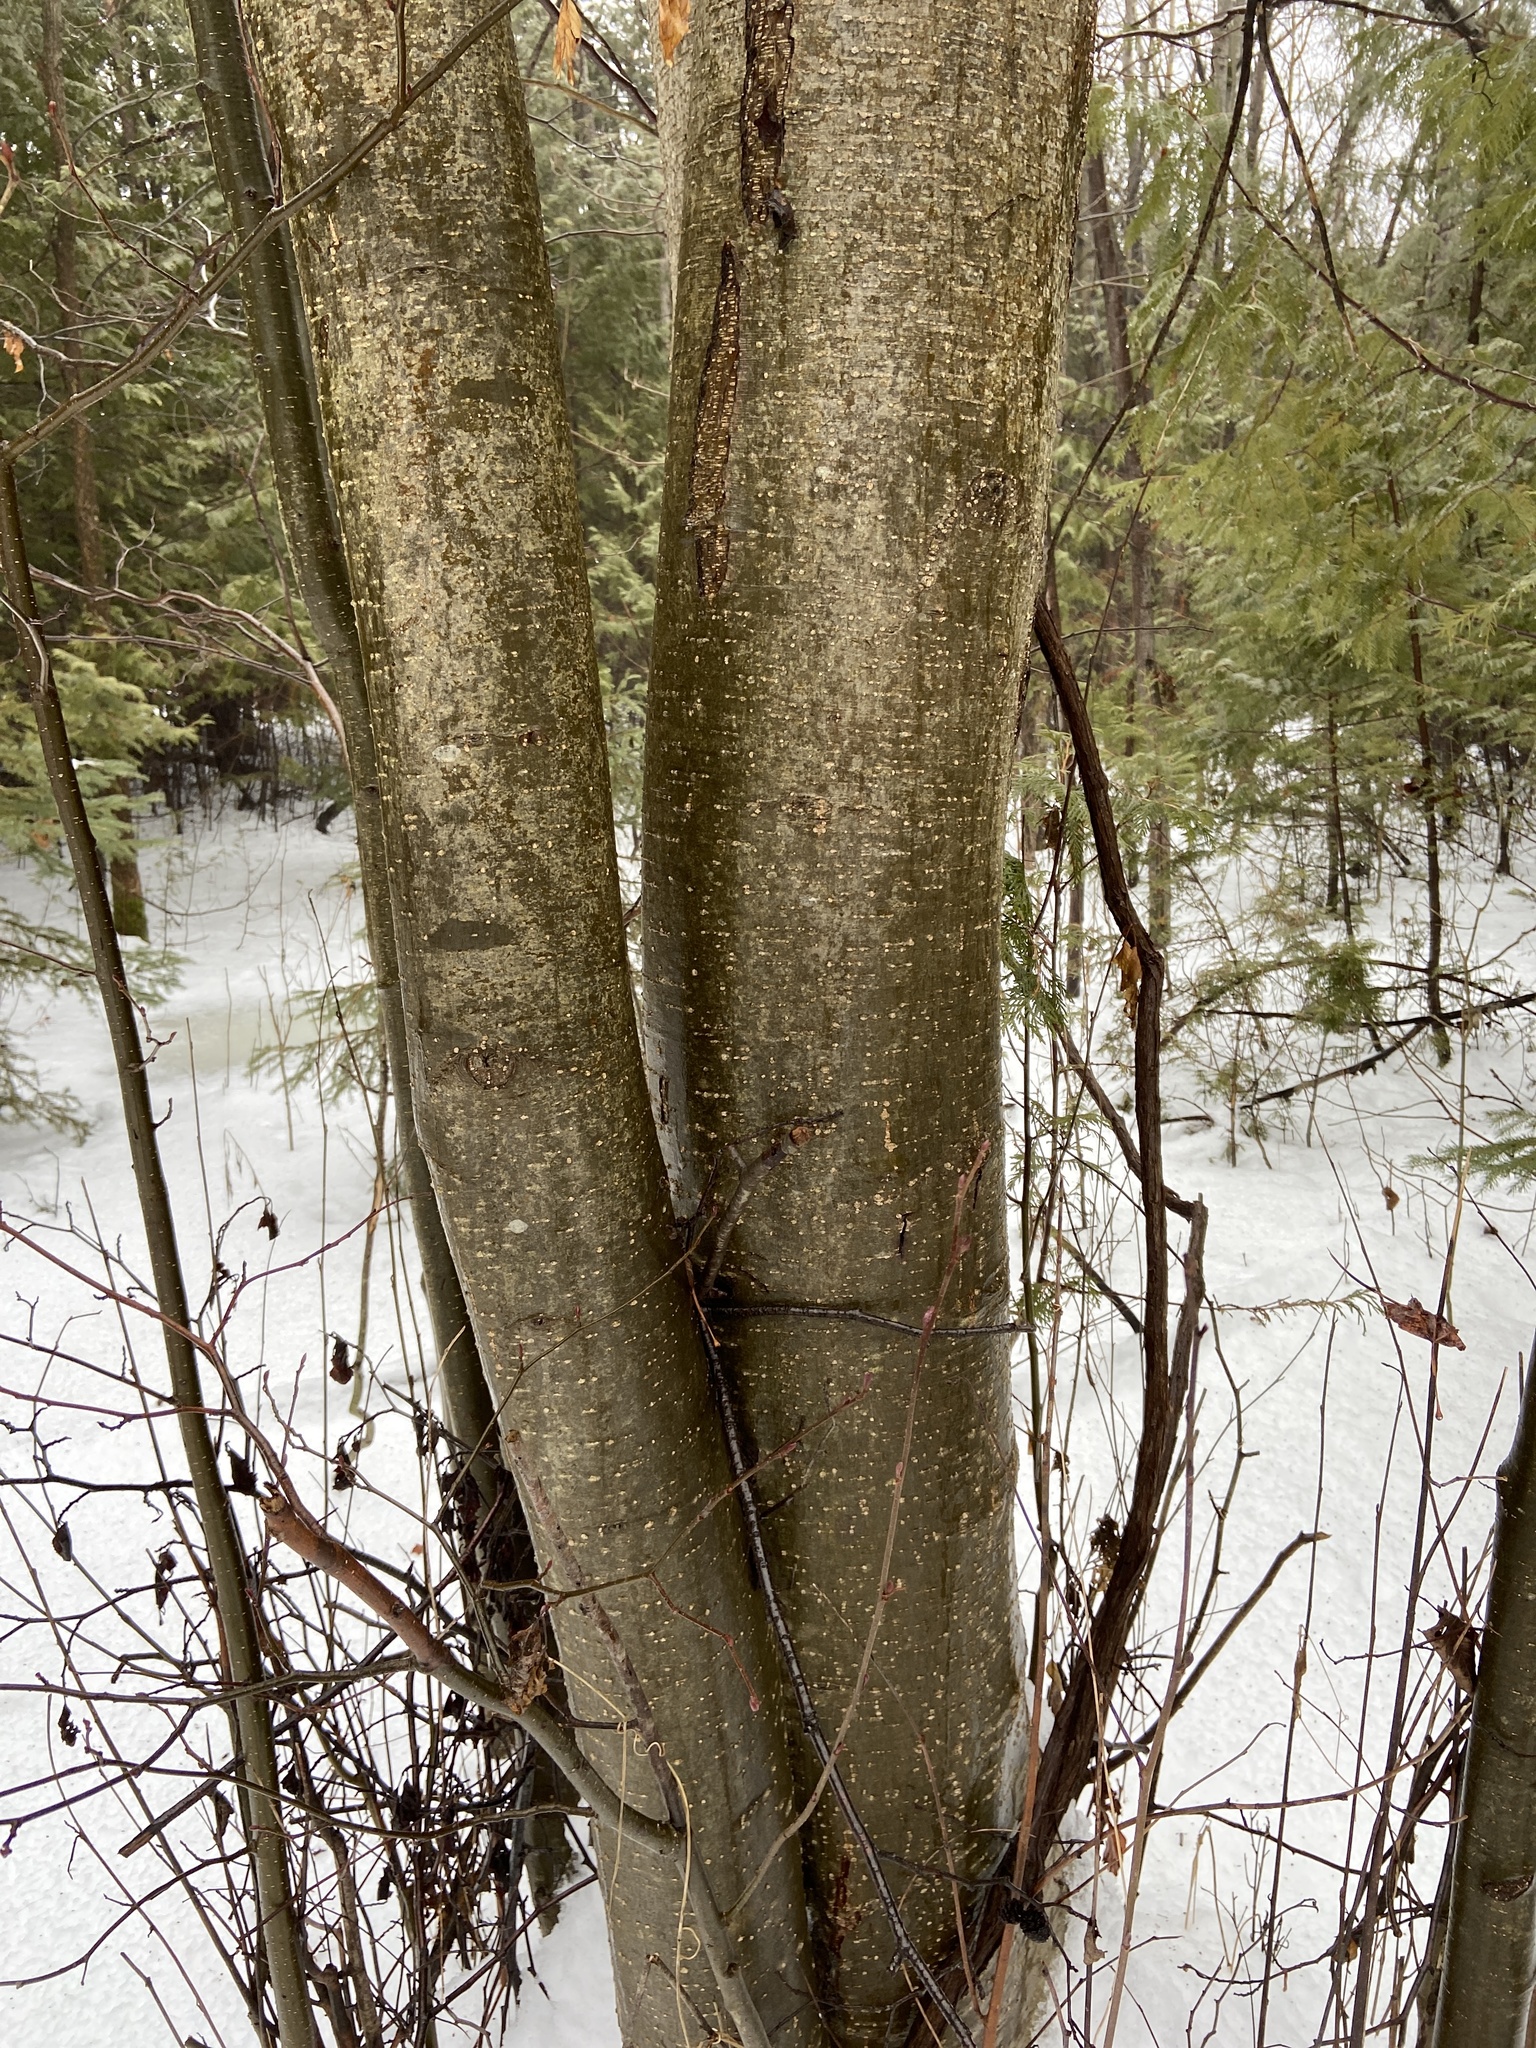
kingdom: Plantae
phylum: Tracheophyta
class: Magnoliopsida
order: Fagales
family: Betulaceae
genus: Alnus
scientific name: Alnus glutinosa
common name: Black alder
